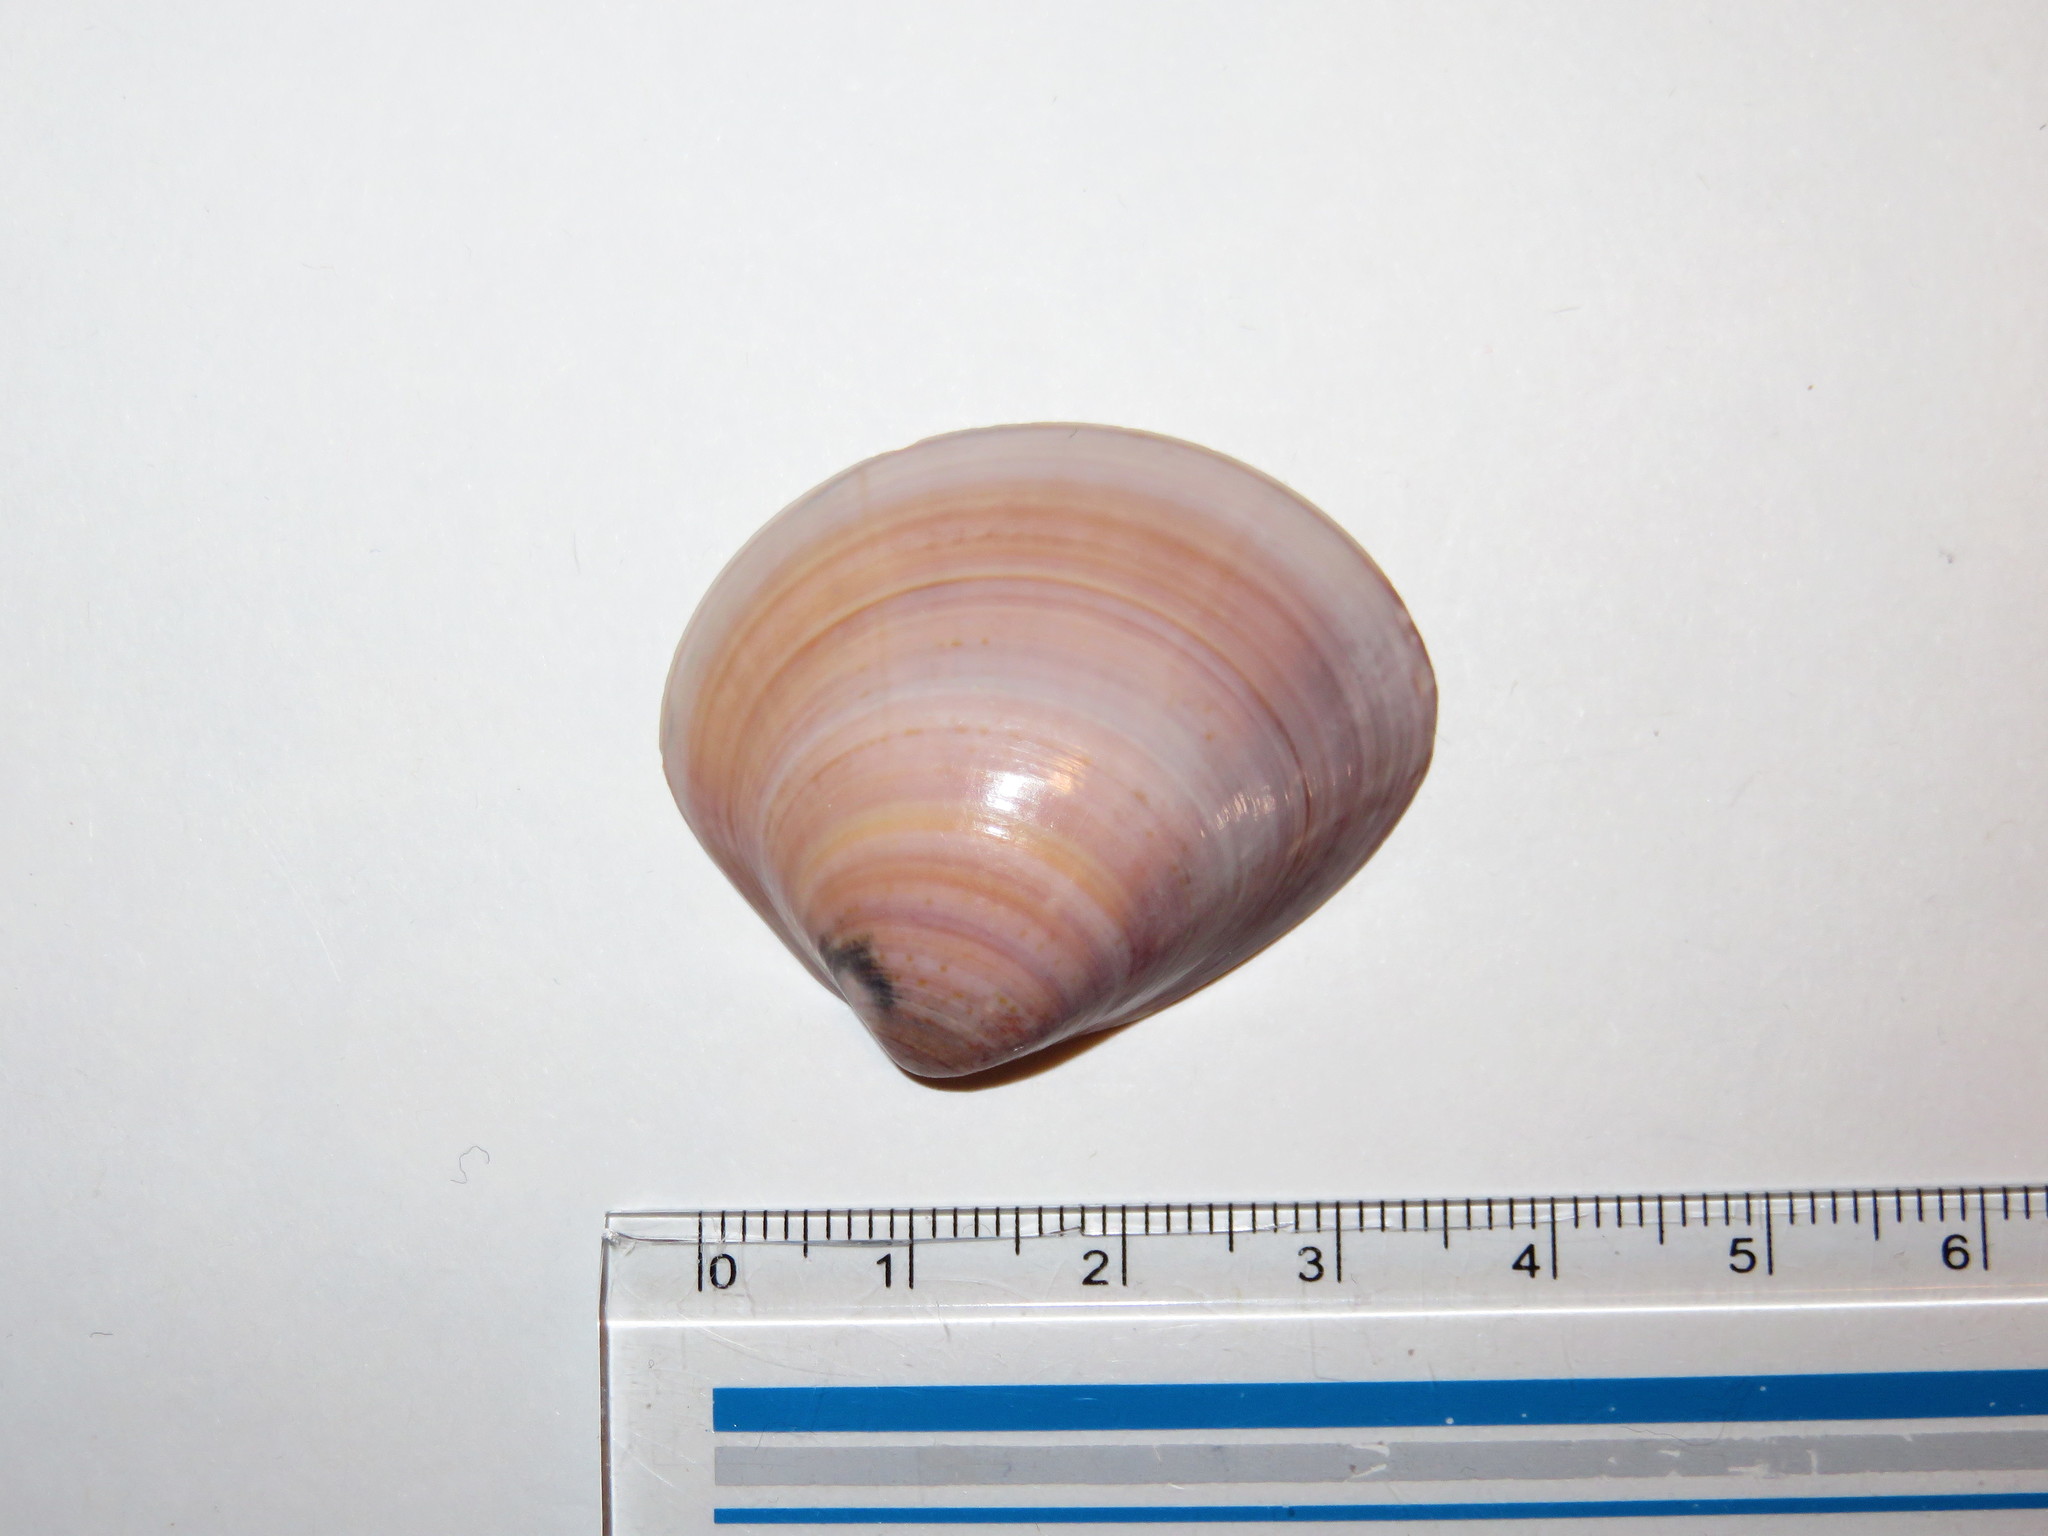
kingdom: Animalia
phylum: Mollusca
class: Bivalvia
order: Venerida
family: Veneridae
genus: Meretrix
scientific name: Meretrix petechialis
